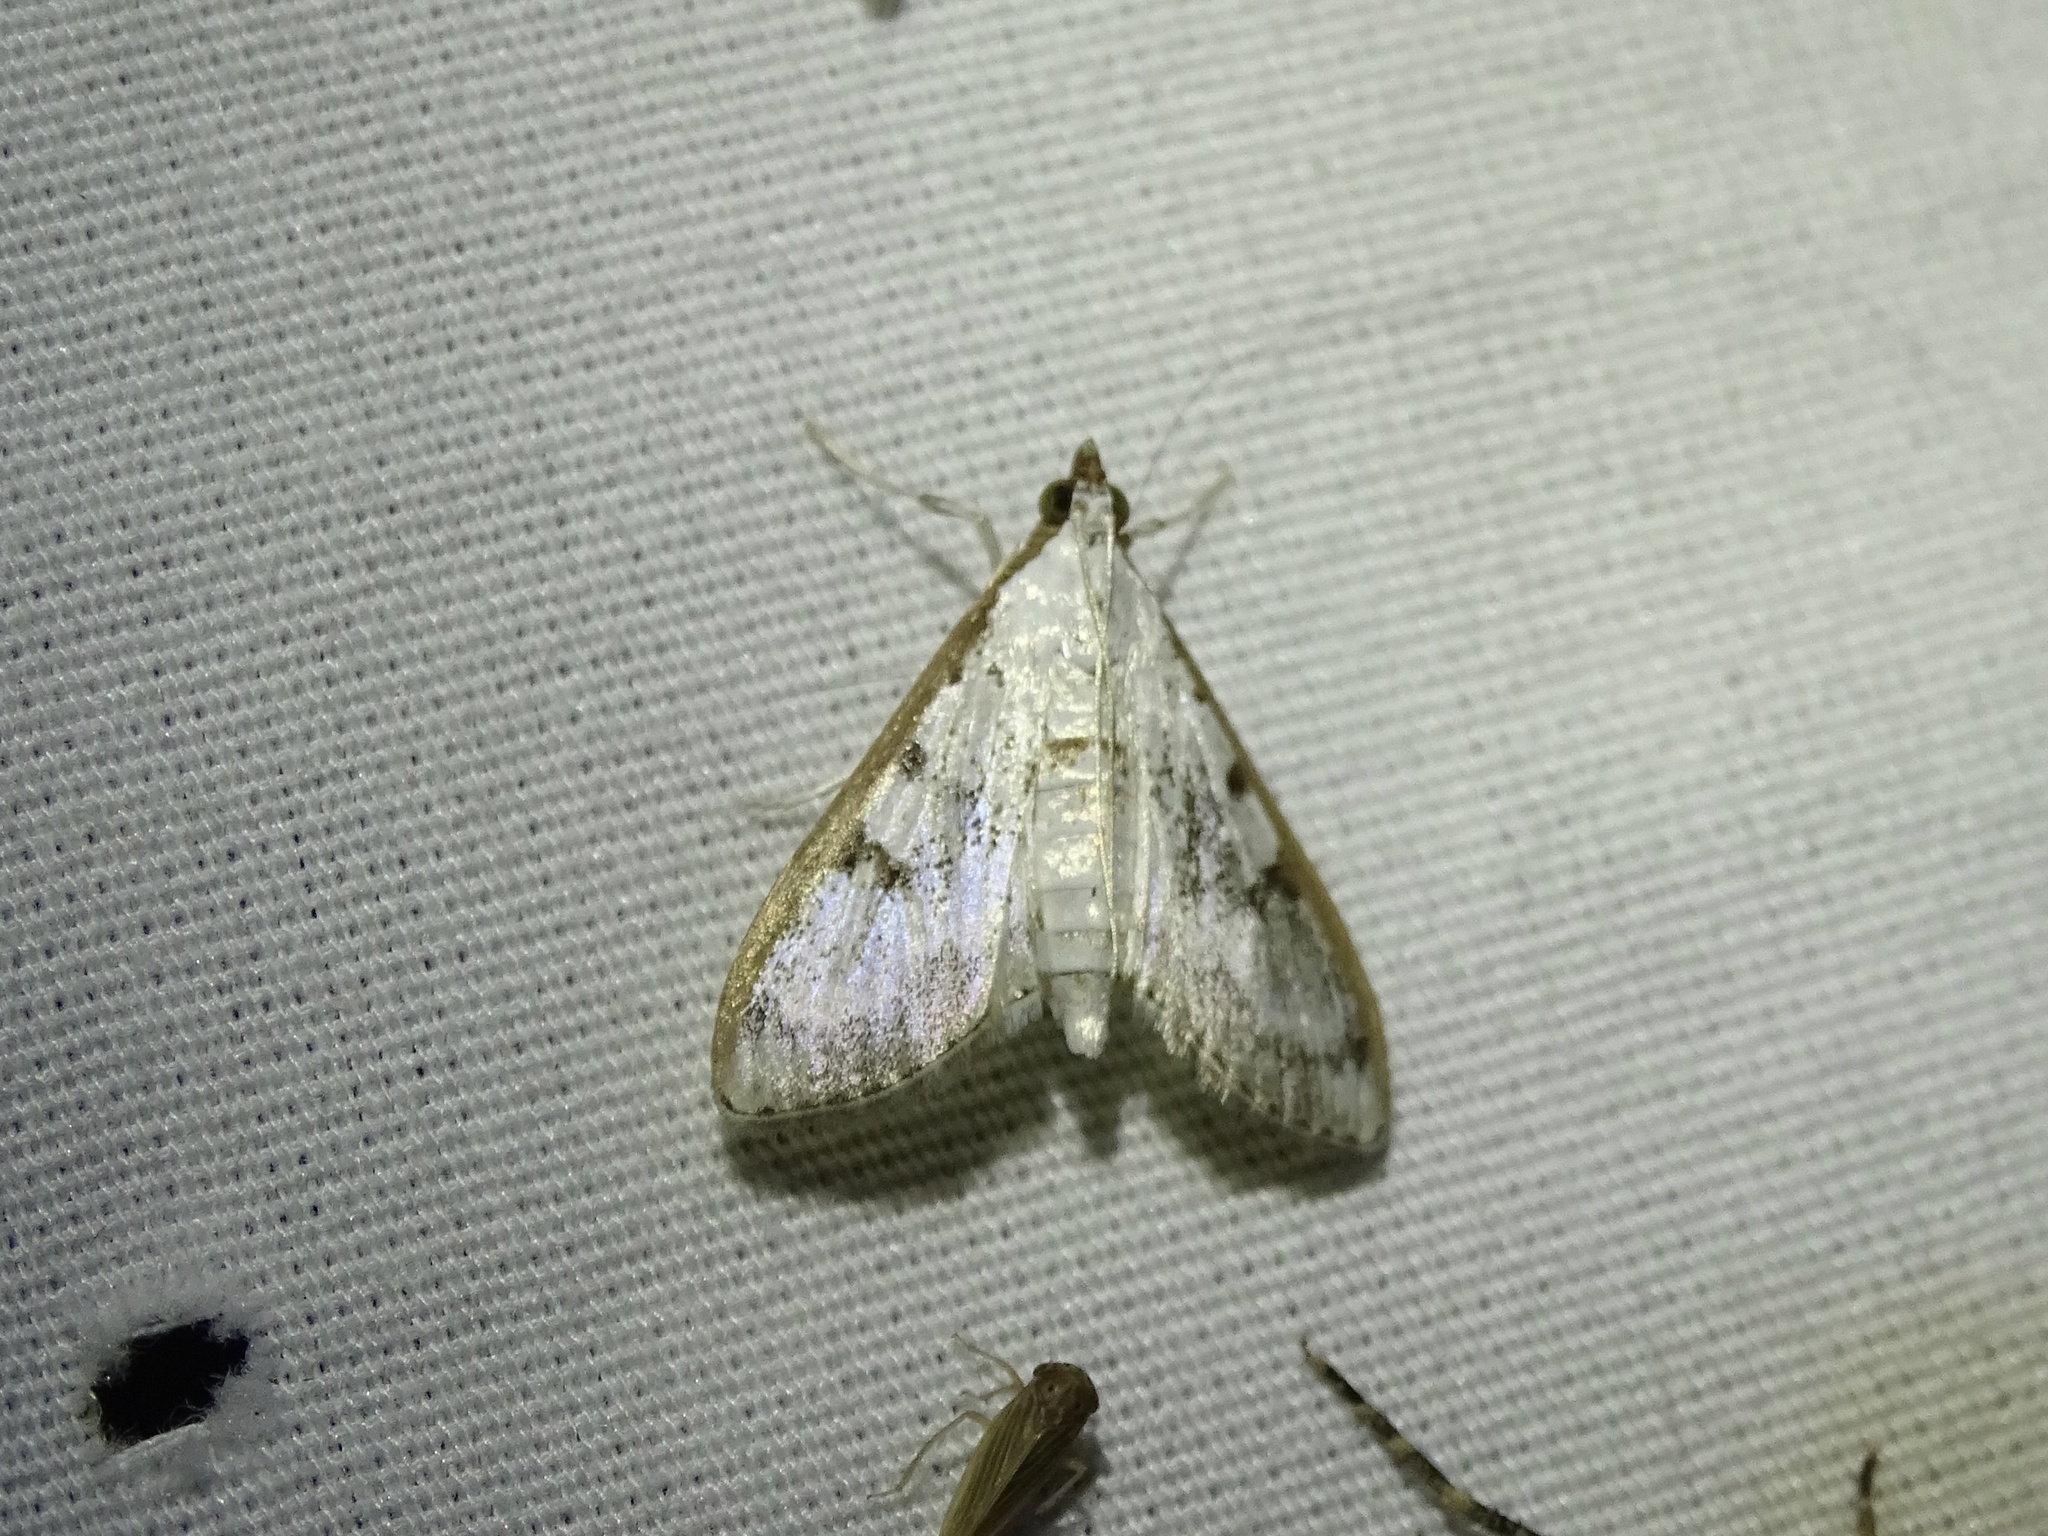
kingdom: Animalia
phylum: Arthropoda
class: Insecta
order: Lepidoptera
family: Crambidae
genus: Palpita
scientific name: Palpita gracilalis
